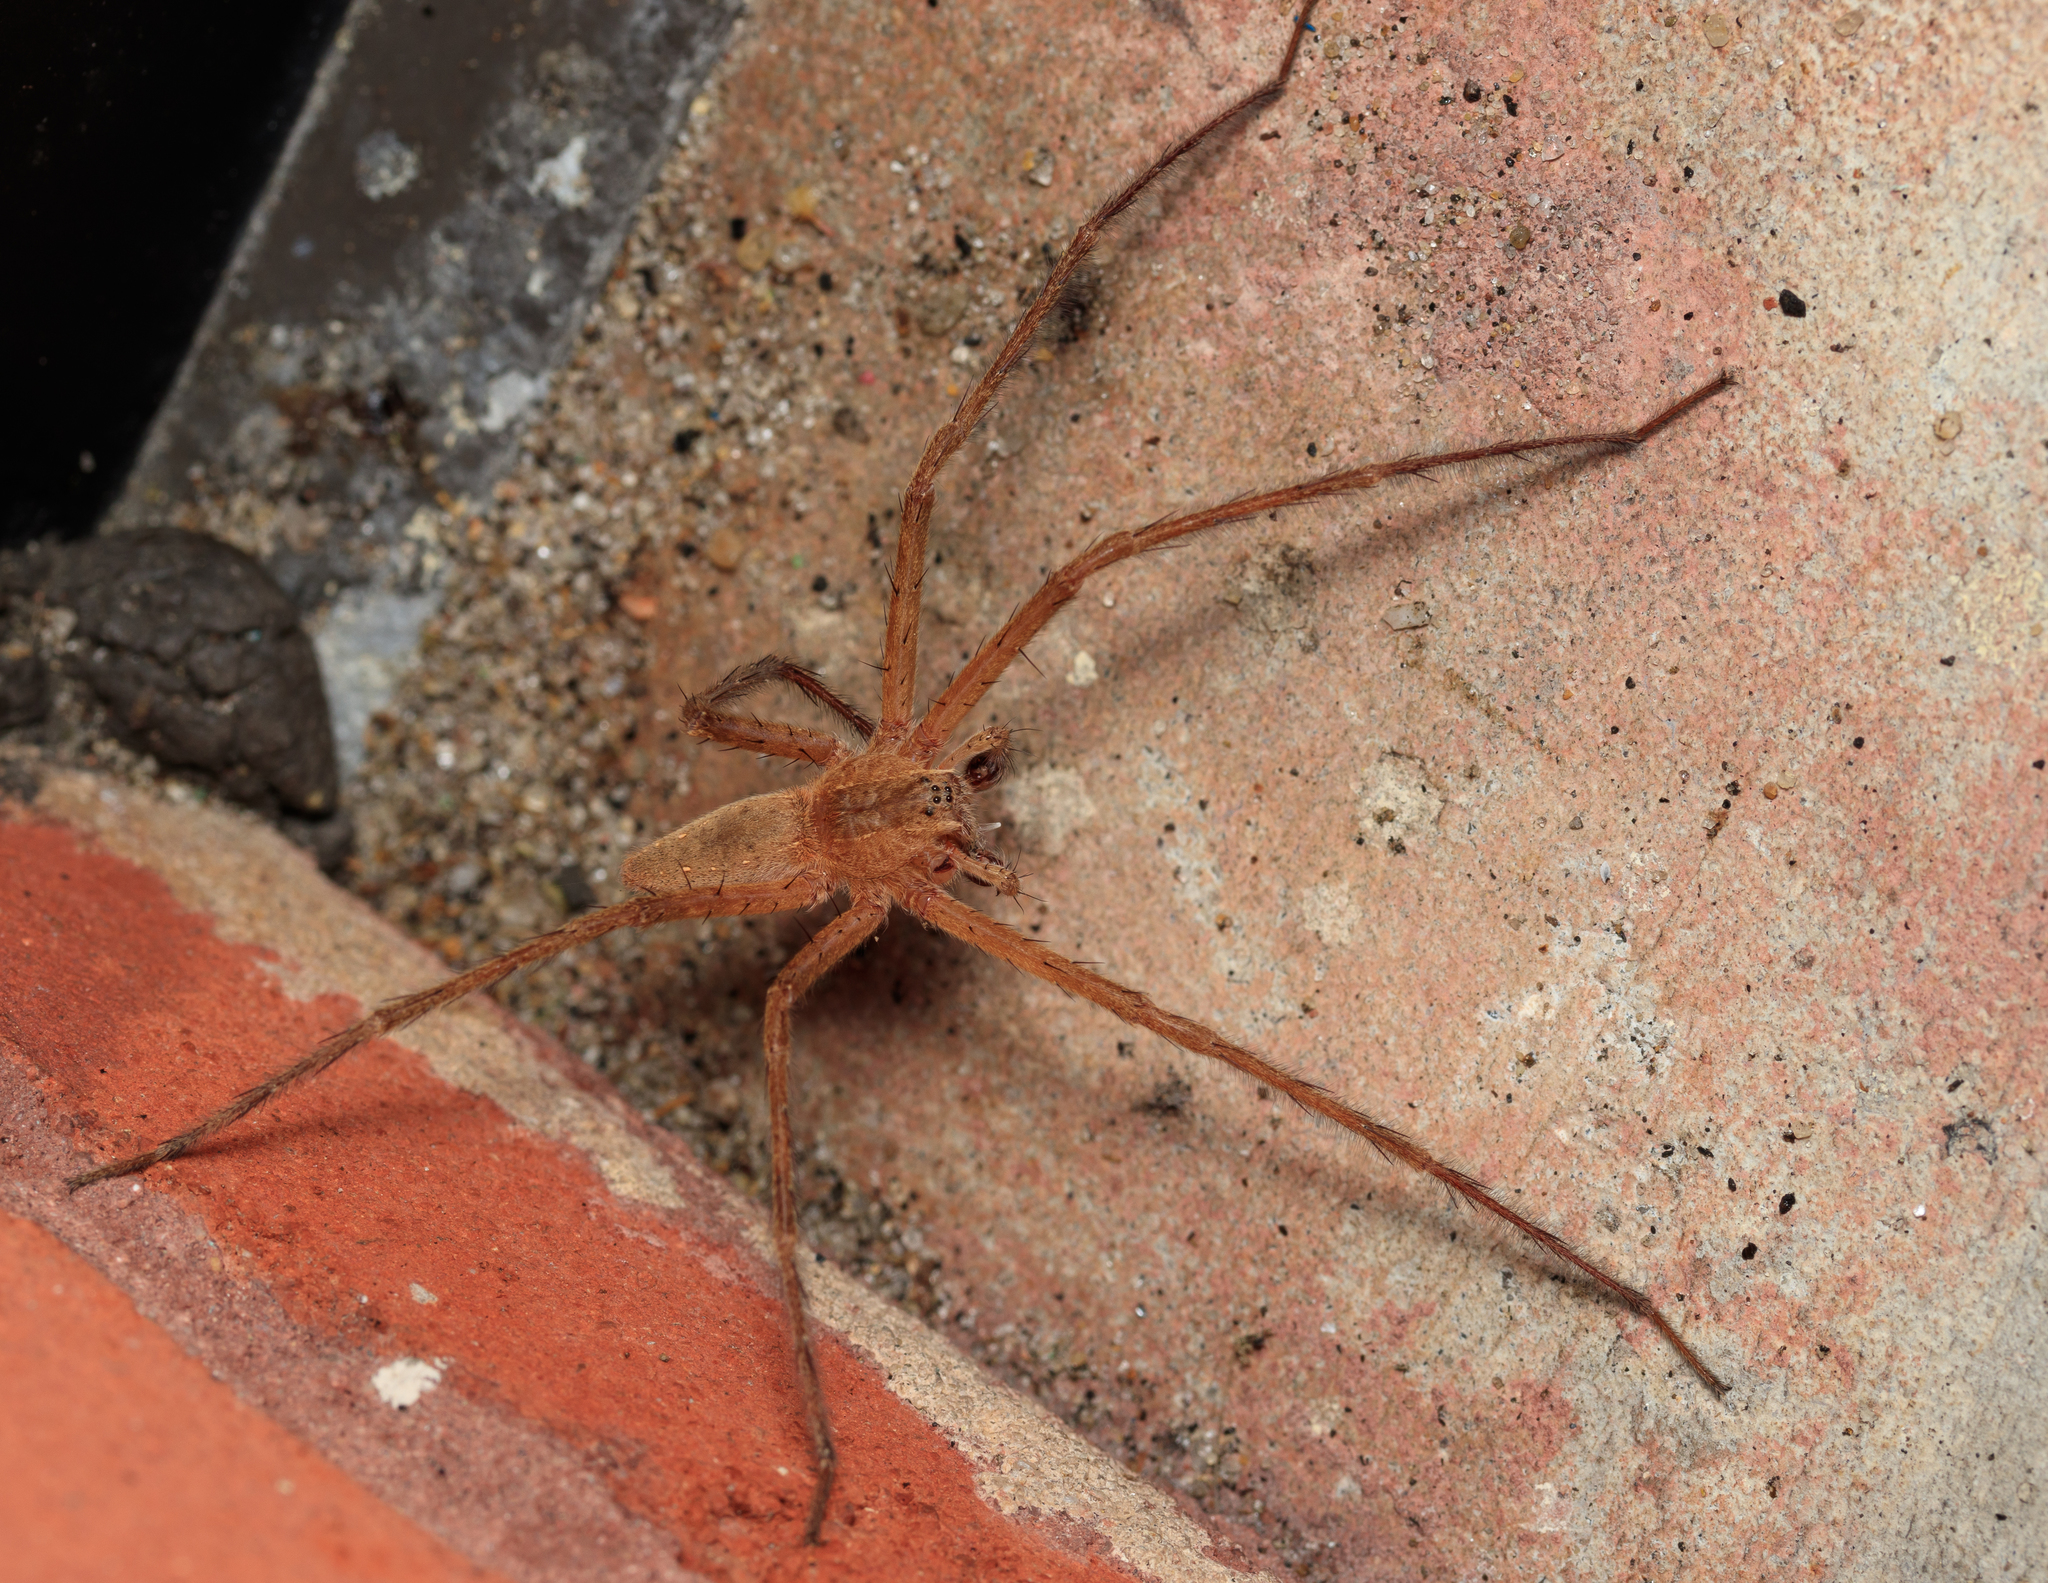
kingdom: Animalia
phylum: Arthropoda
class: Arachnida
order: Araneae
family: Pisauridae
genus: Pisaurina
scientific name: Pisaurina mira
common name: American nursery web spider
